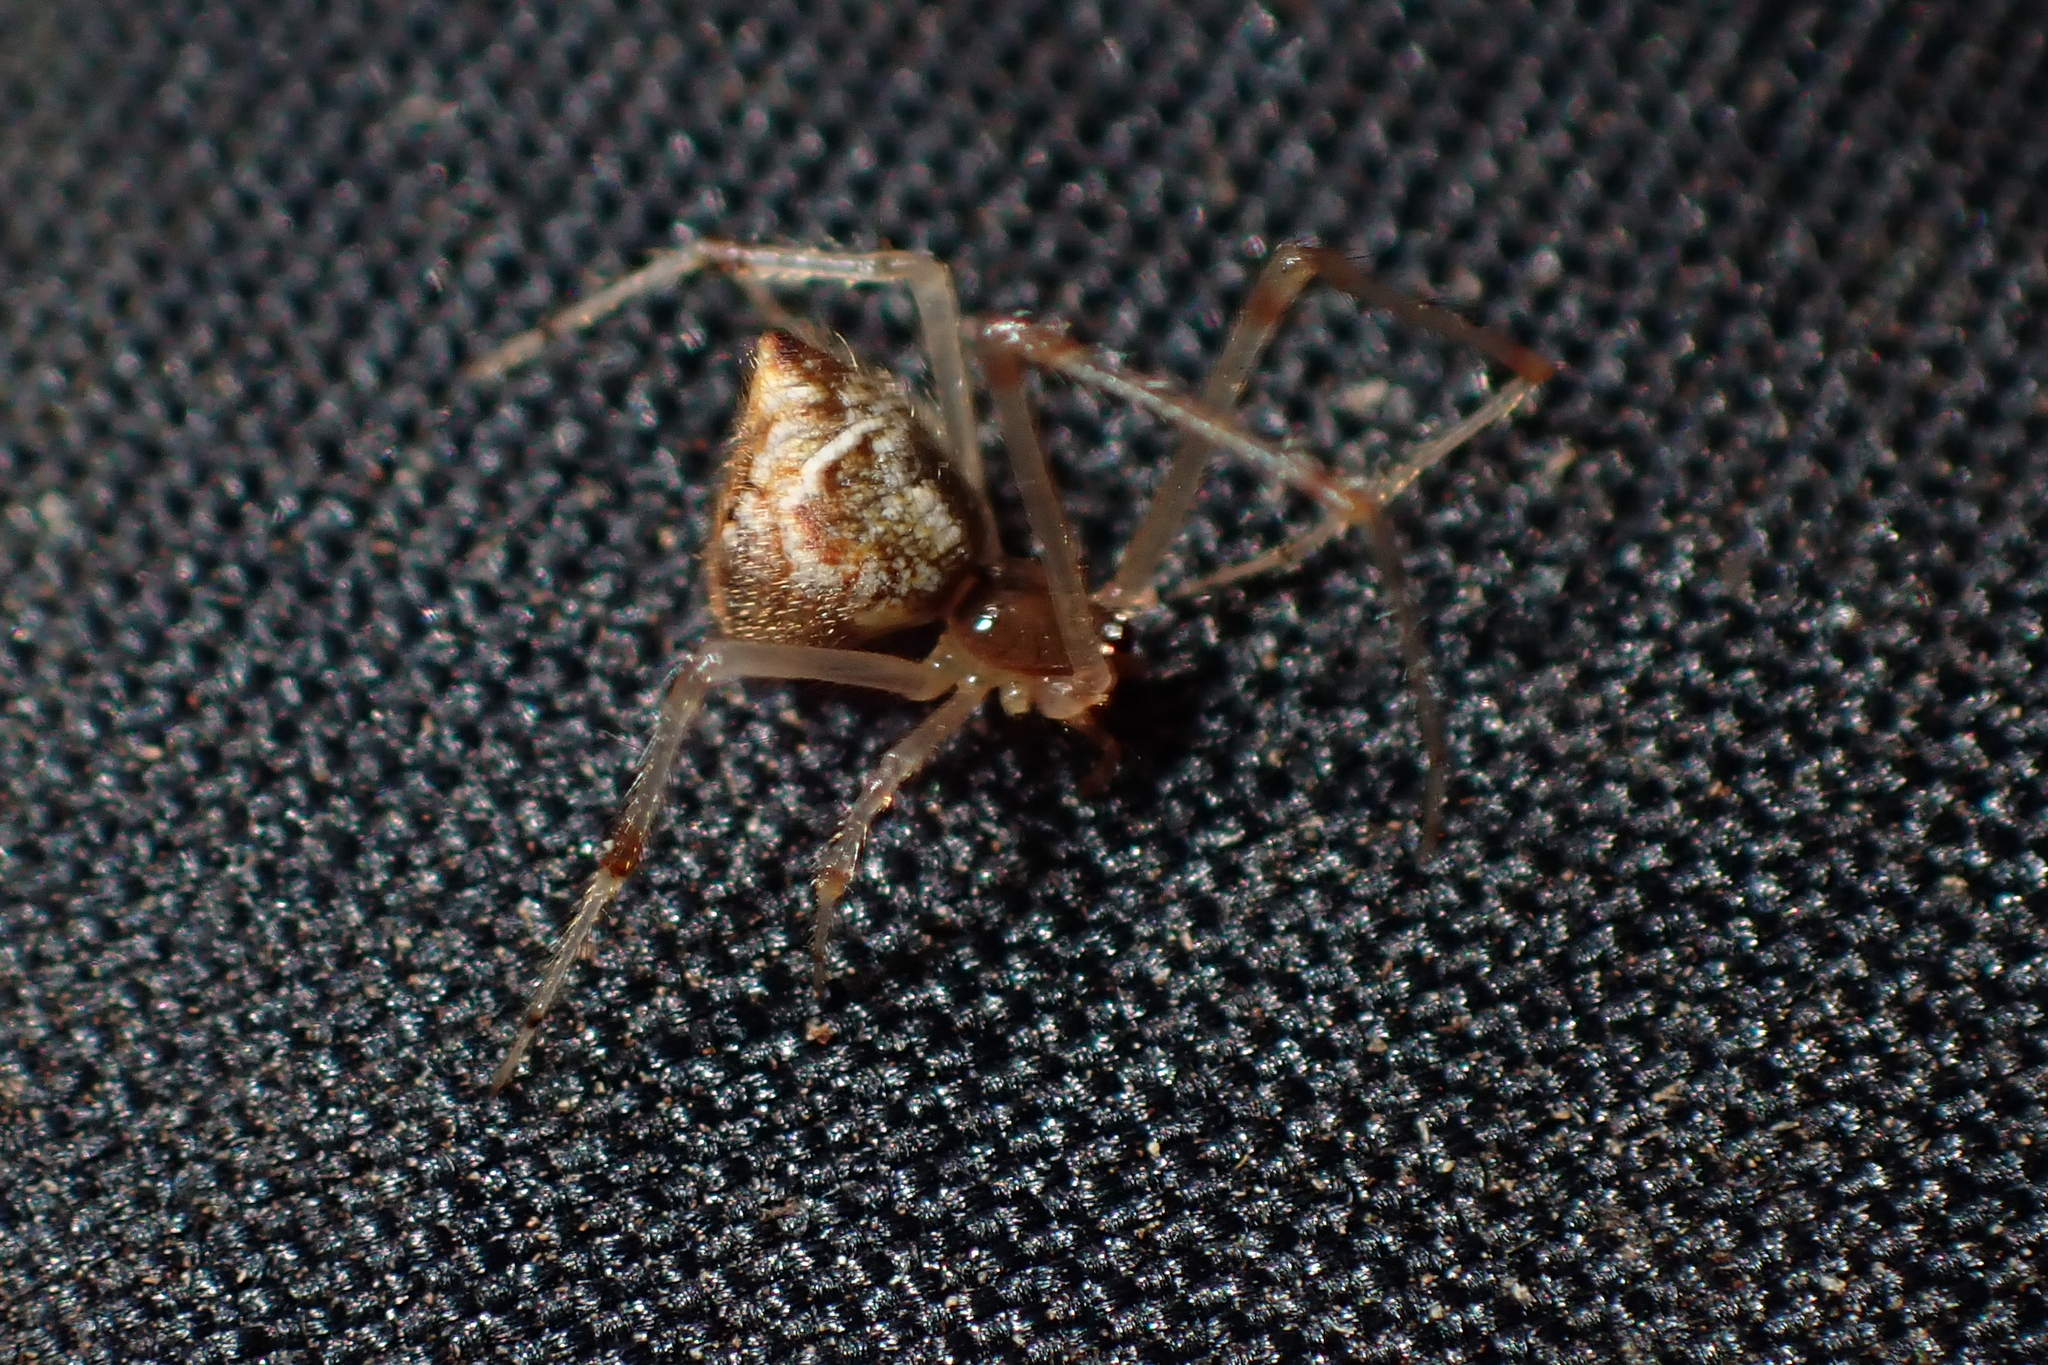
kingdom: Animalia
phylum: Arthropoda
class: Arachnida
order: Araneae
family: Theridiidae
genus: Cryptachaea
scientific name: Cryptachaea meraukensis
